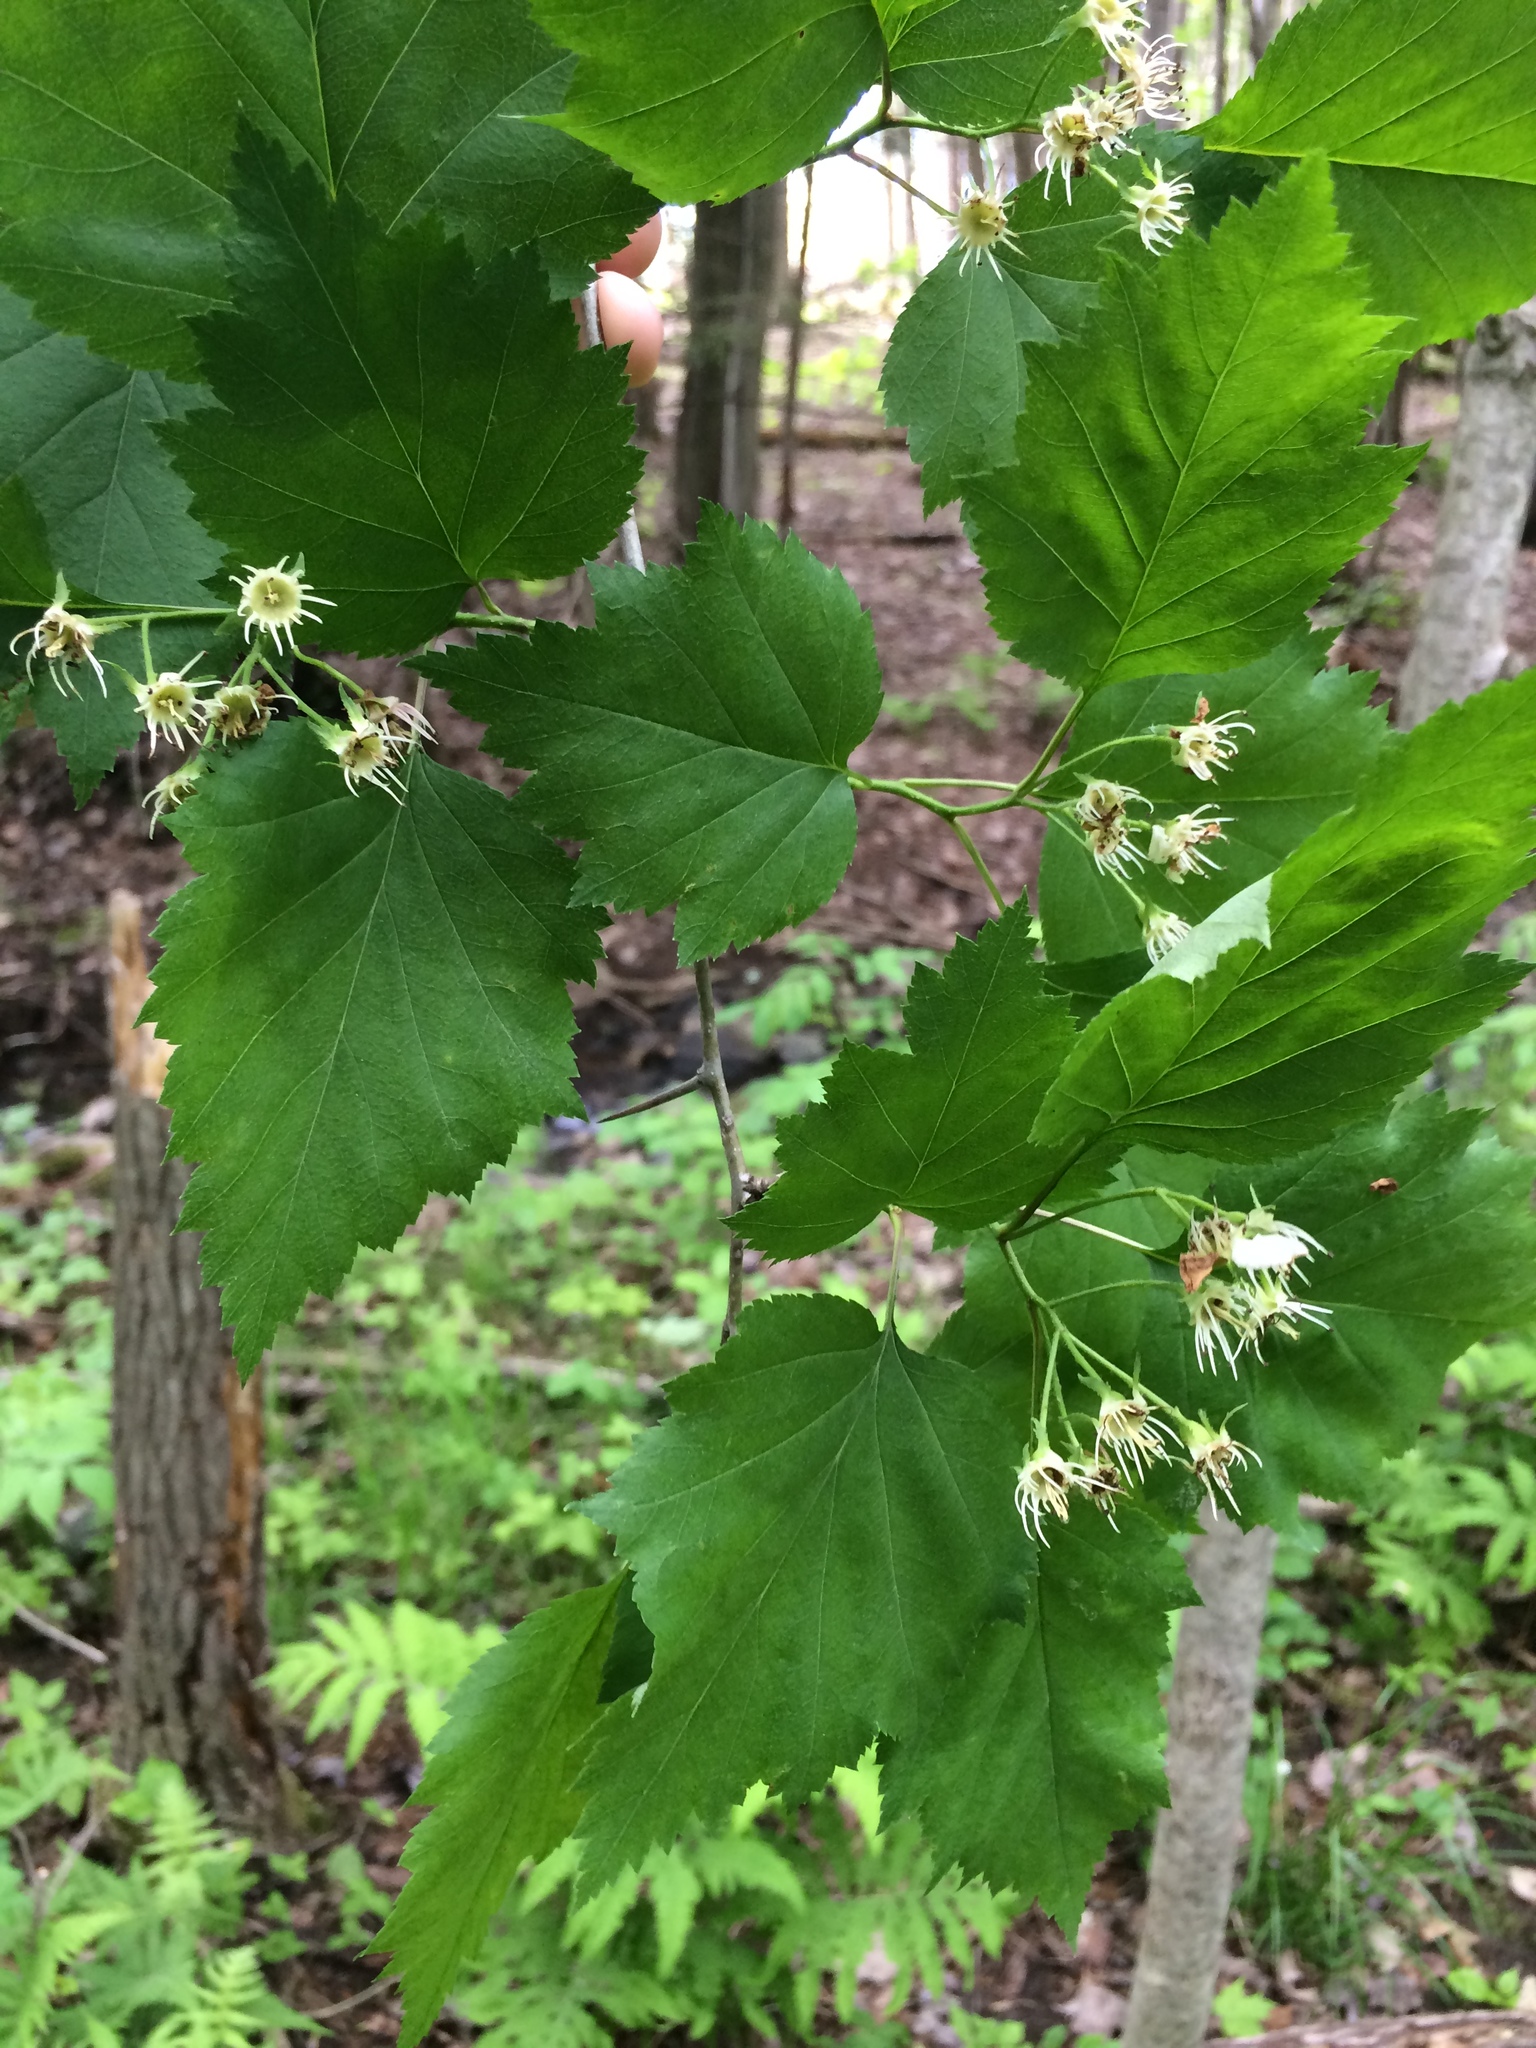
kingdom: Plantae
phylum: Tracheophyta
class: Magnoliopsida
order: Rosales
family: Rosaceae
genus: Crataegus
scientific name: Crataegus schuettei
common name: Schuette's hawthorn
